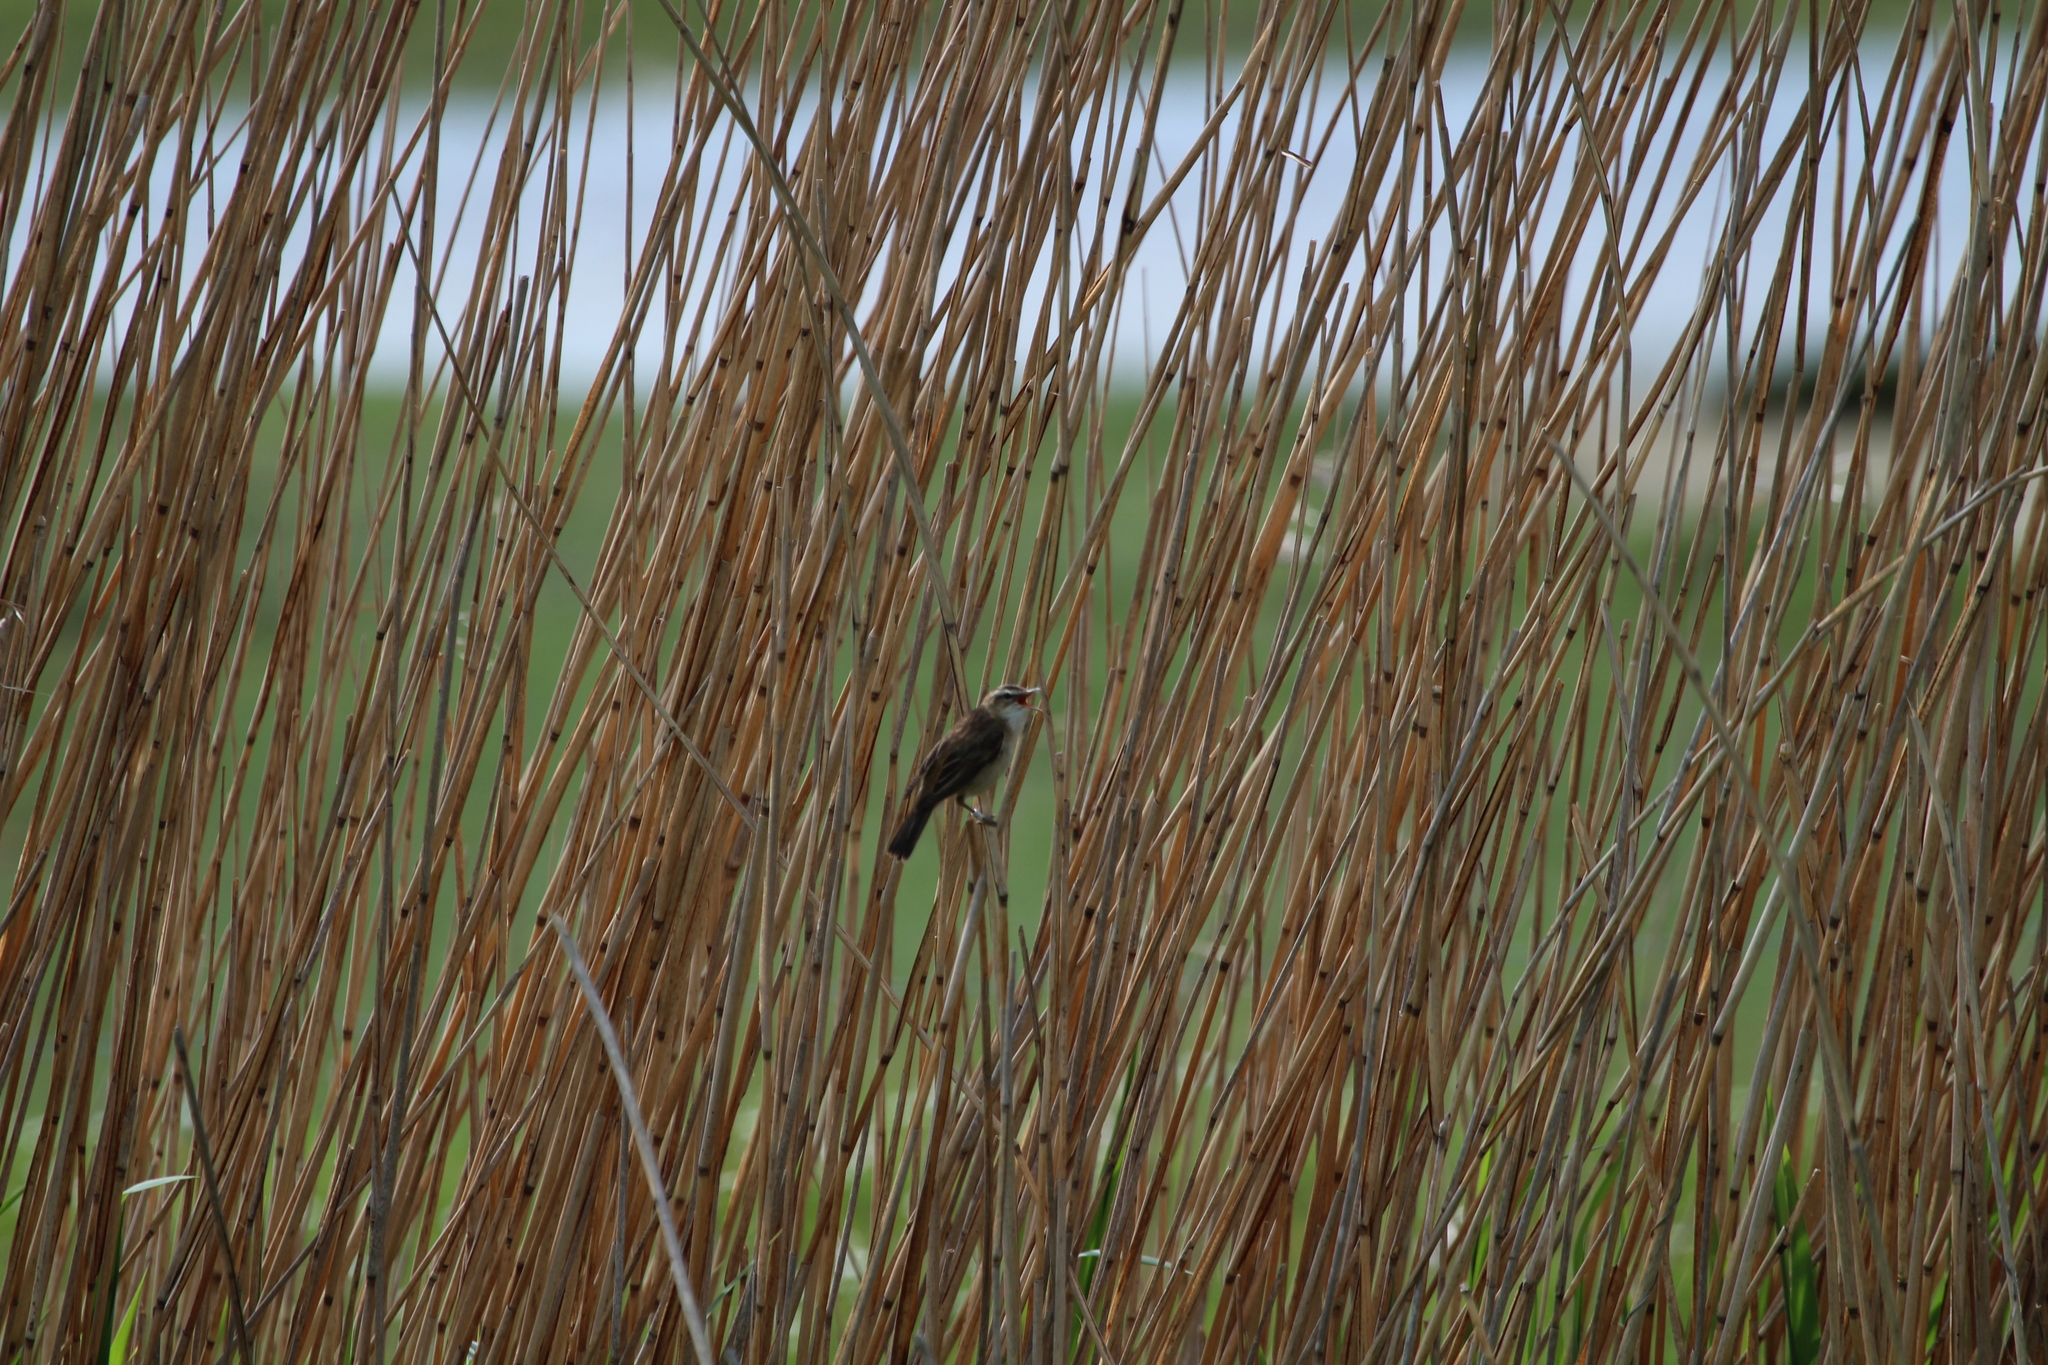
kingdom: Animalia
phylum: Chordata
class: Aves
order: Passeriformes
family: Acrocephalidae
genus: Acrocephalus
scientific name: Acrocephalus schoenobaenus
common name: Sedge warbler
